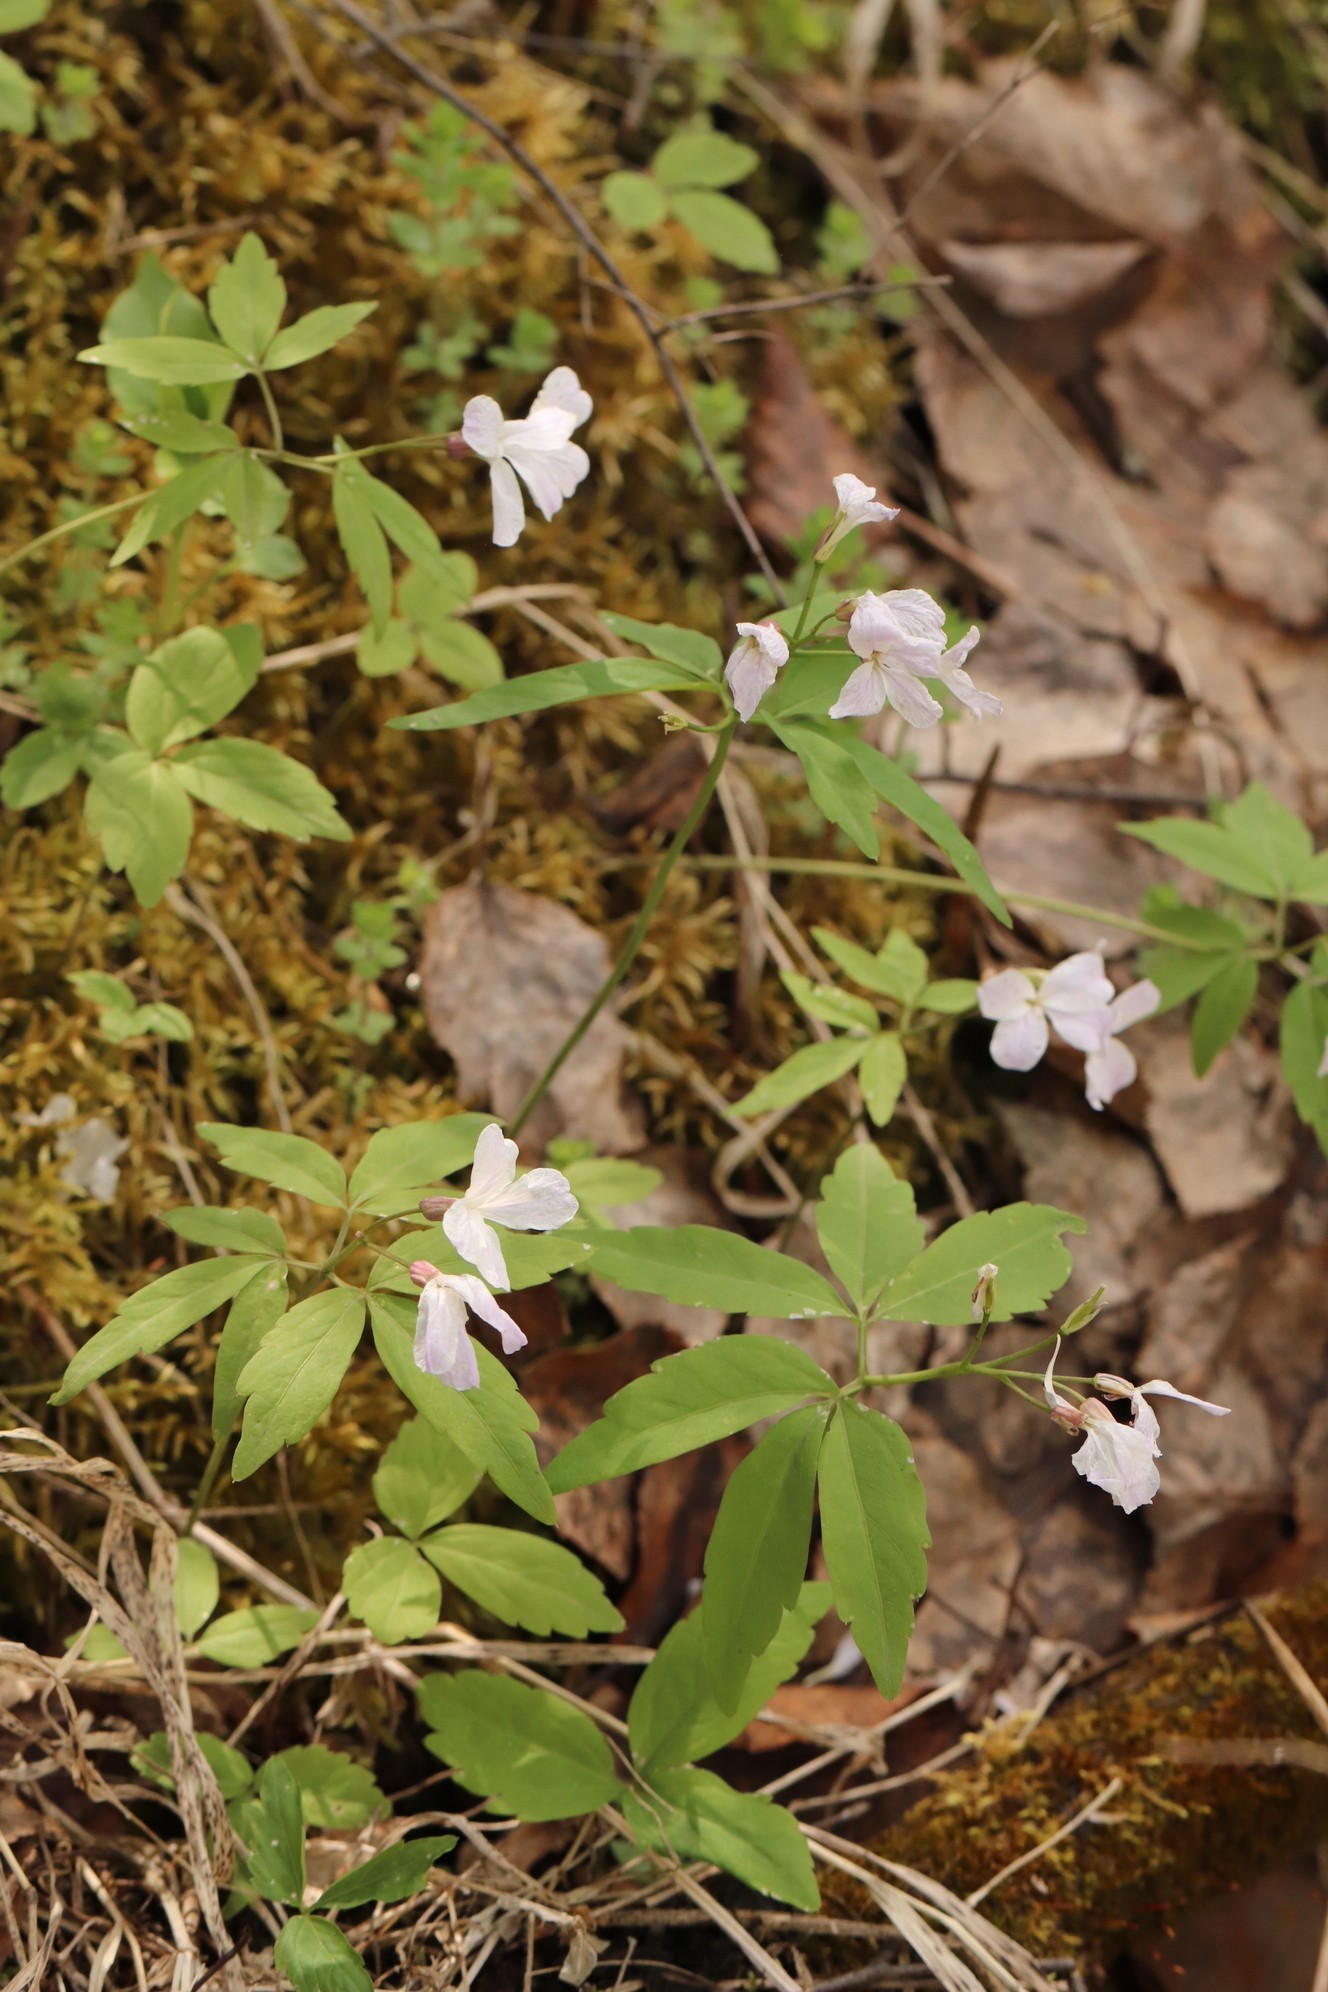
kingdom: Plantae
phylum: Tracheophyta
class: Magnoliopsida
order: Brassicales
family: Brassicaceae
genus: Cardamine
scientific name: Cardamine altaica
